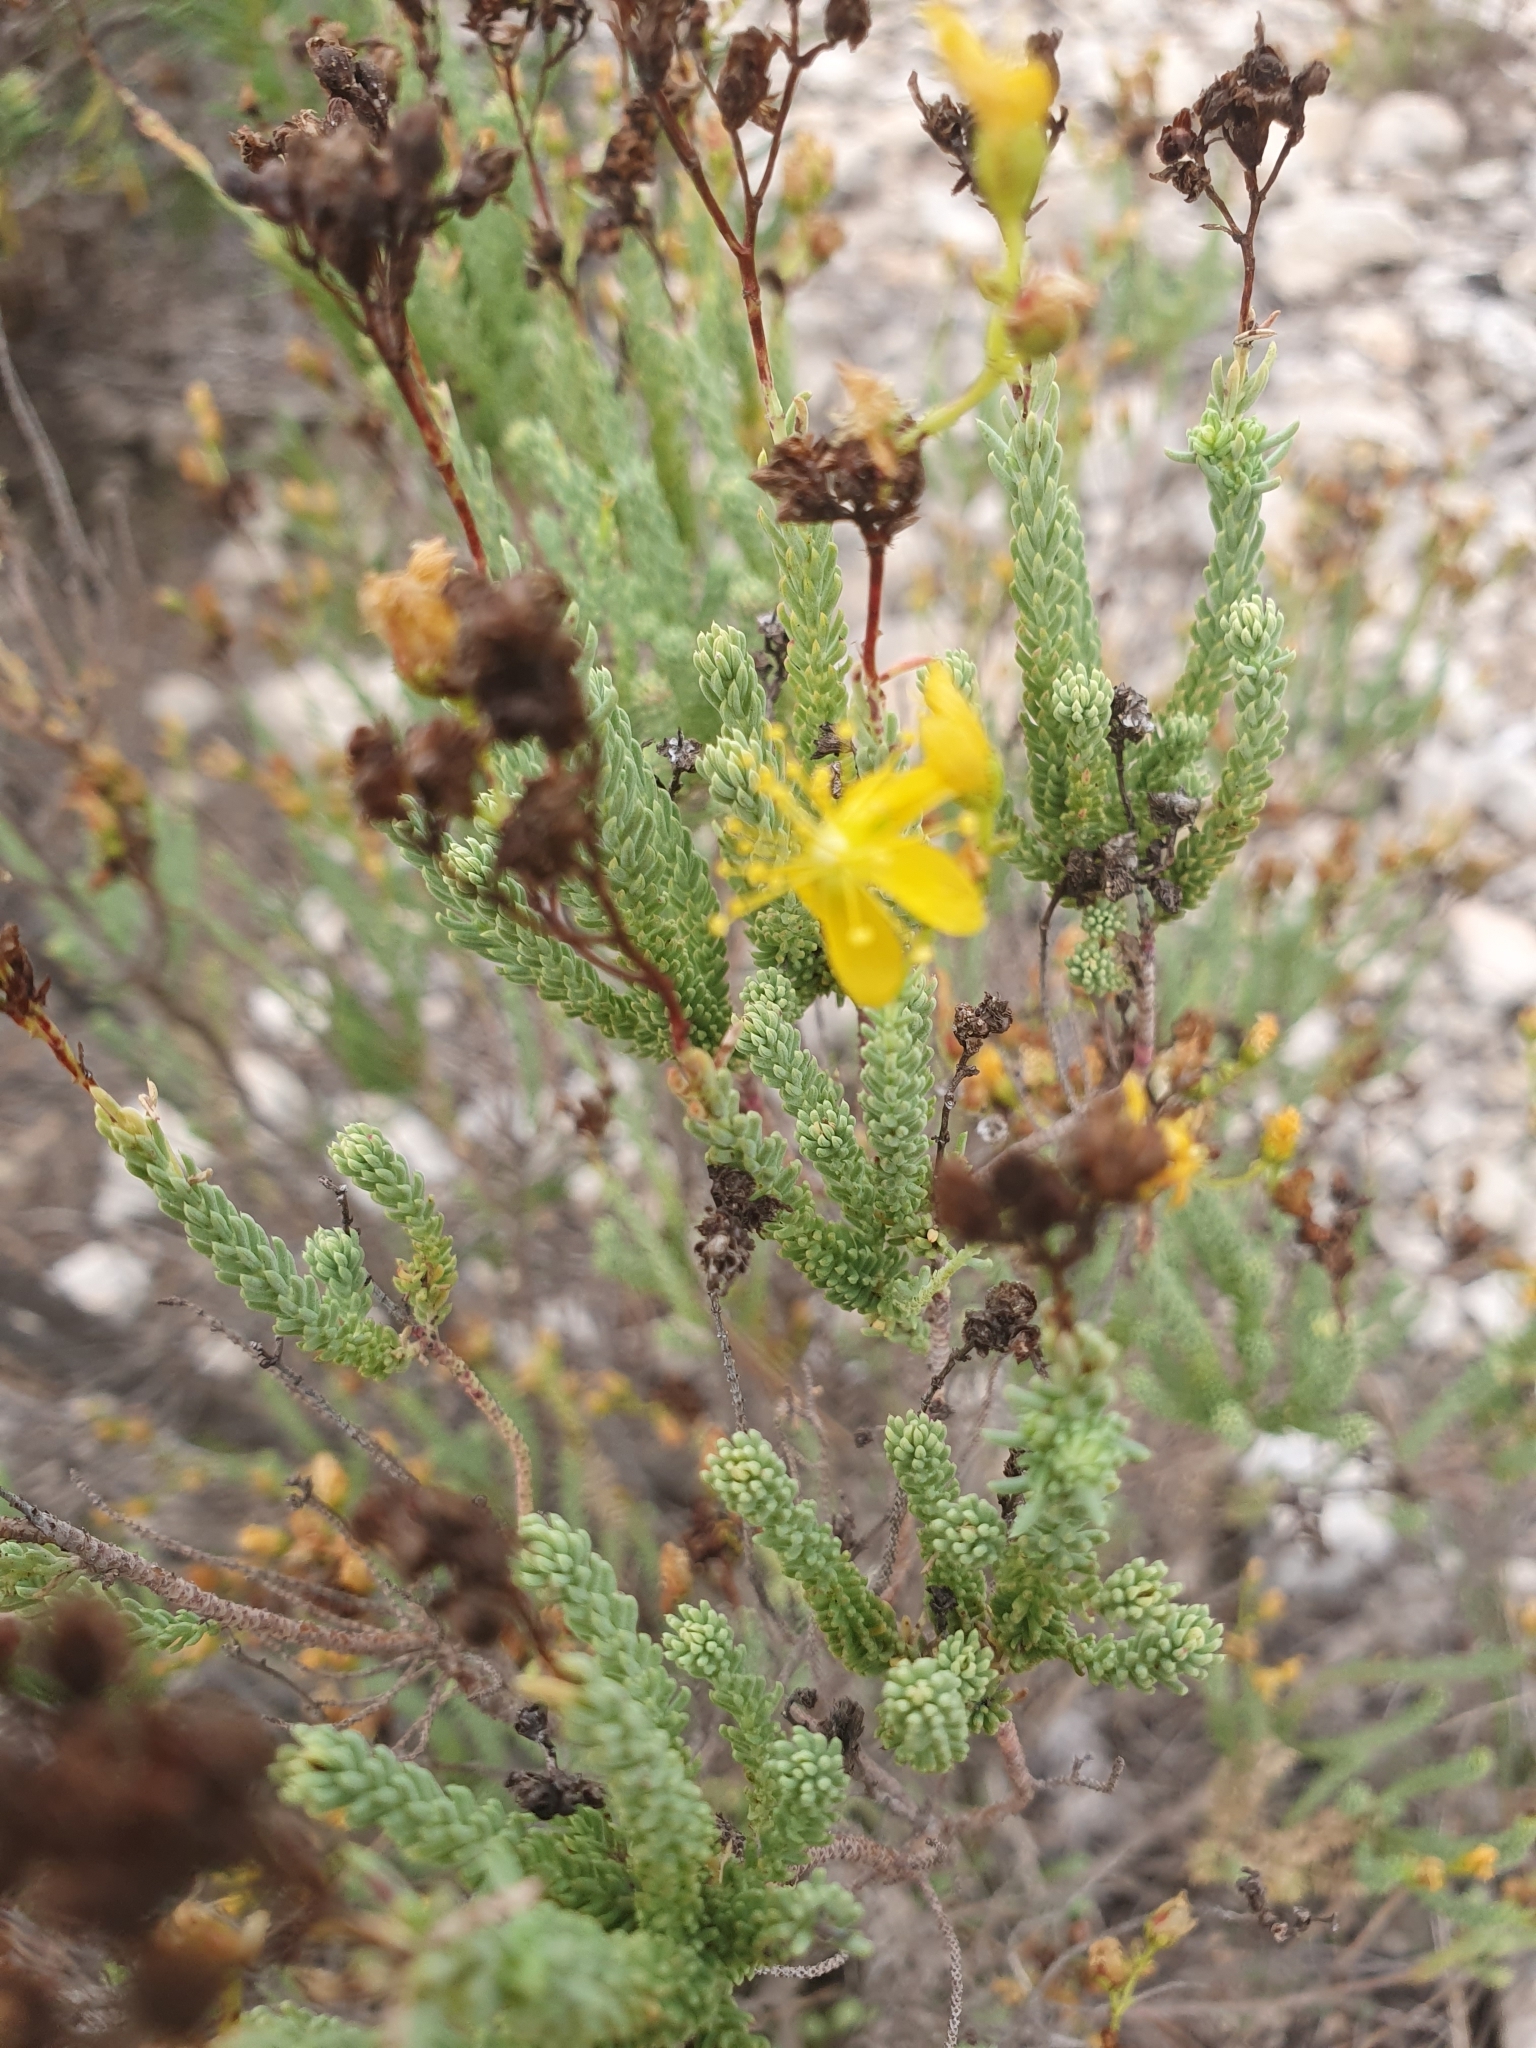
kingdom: Plantae
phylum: Tracheophyta
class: Magnoliopsida
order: Malpighiales
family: Hypericaceae
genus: Hypericum
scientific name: Hypericum ericoides
